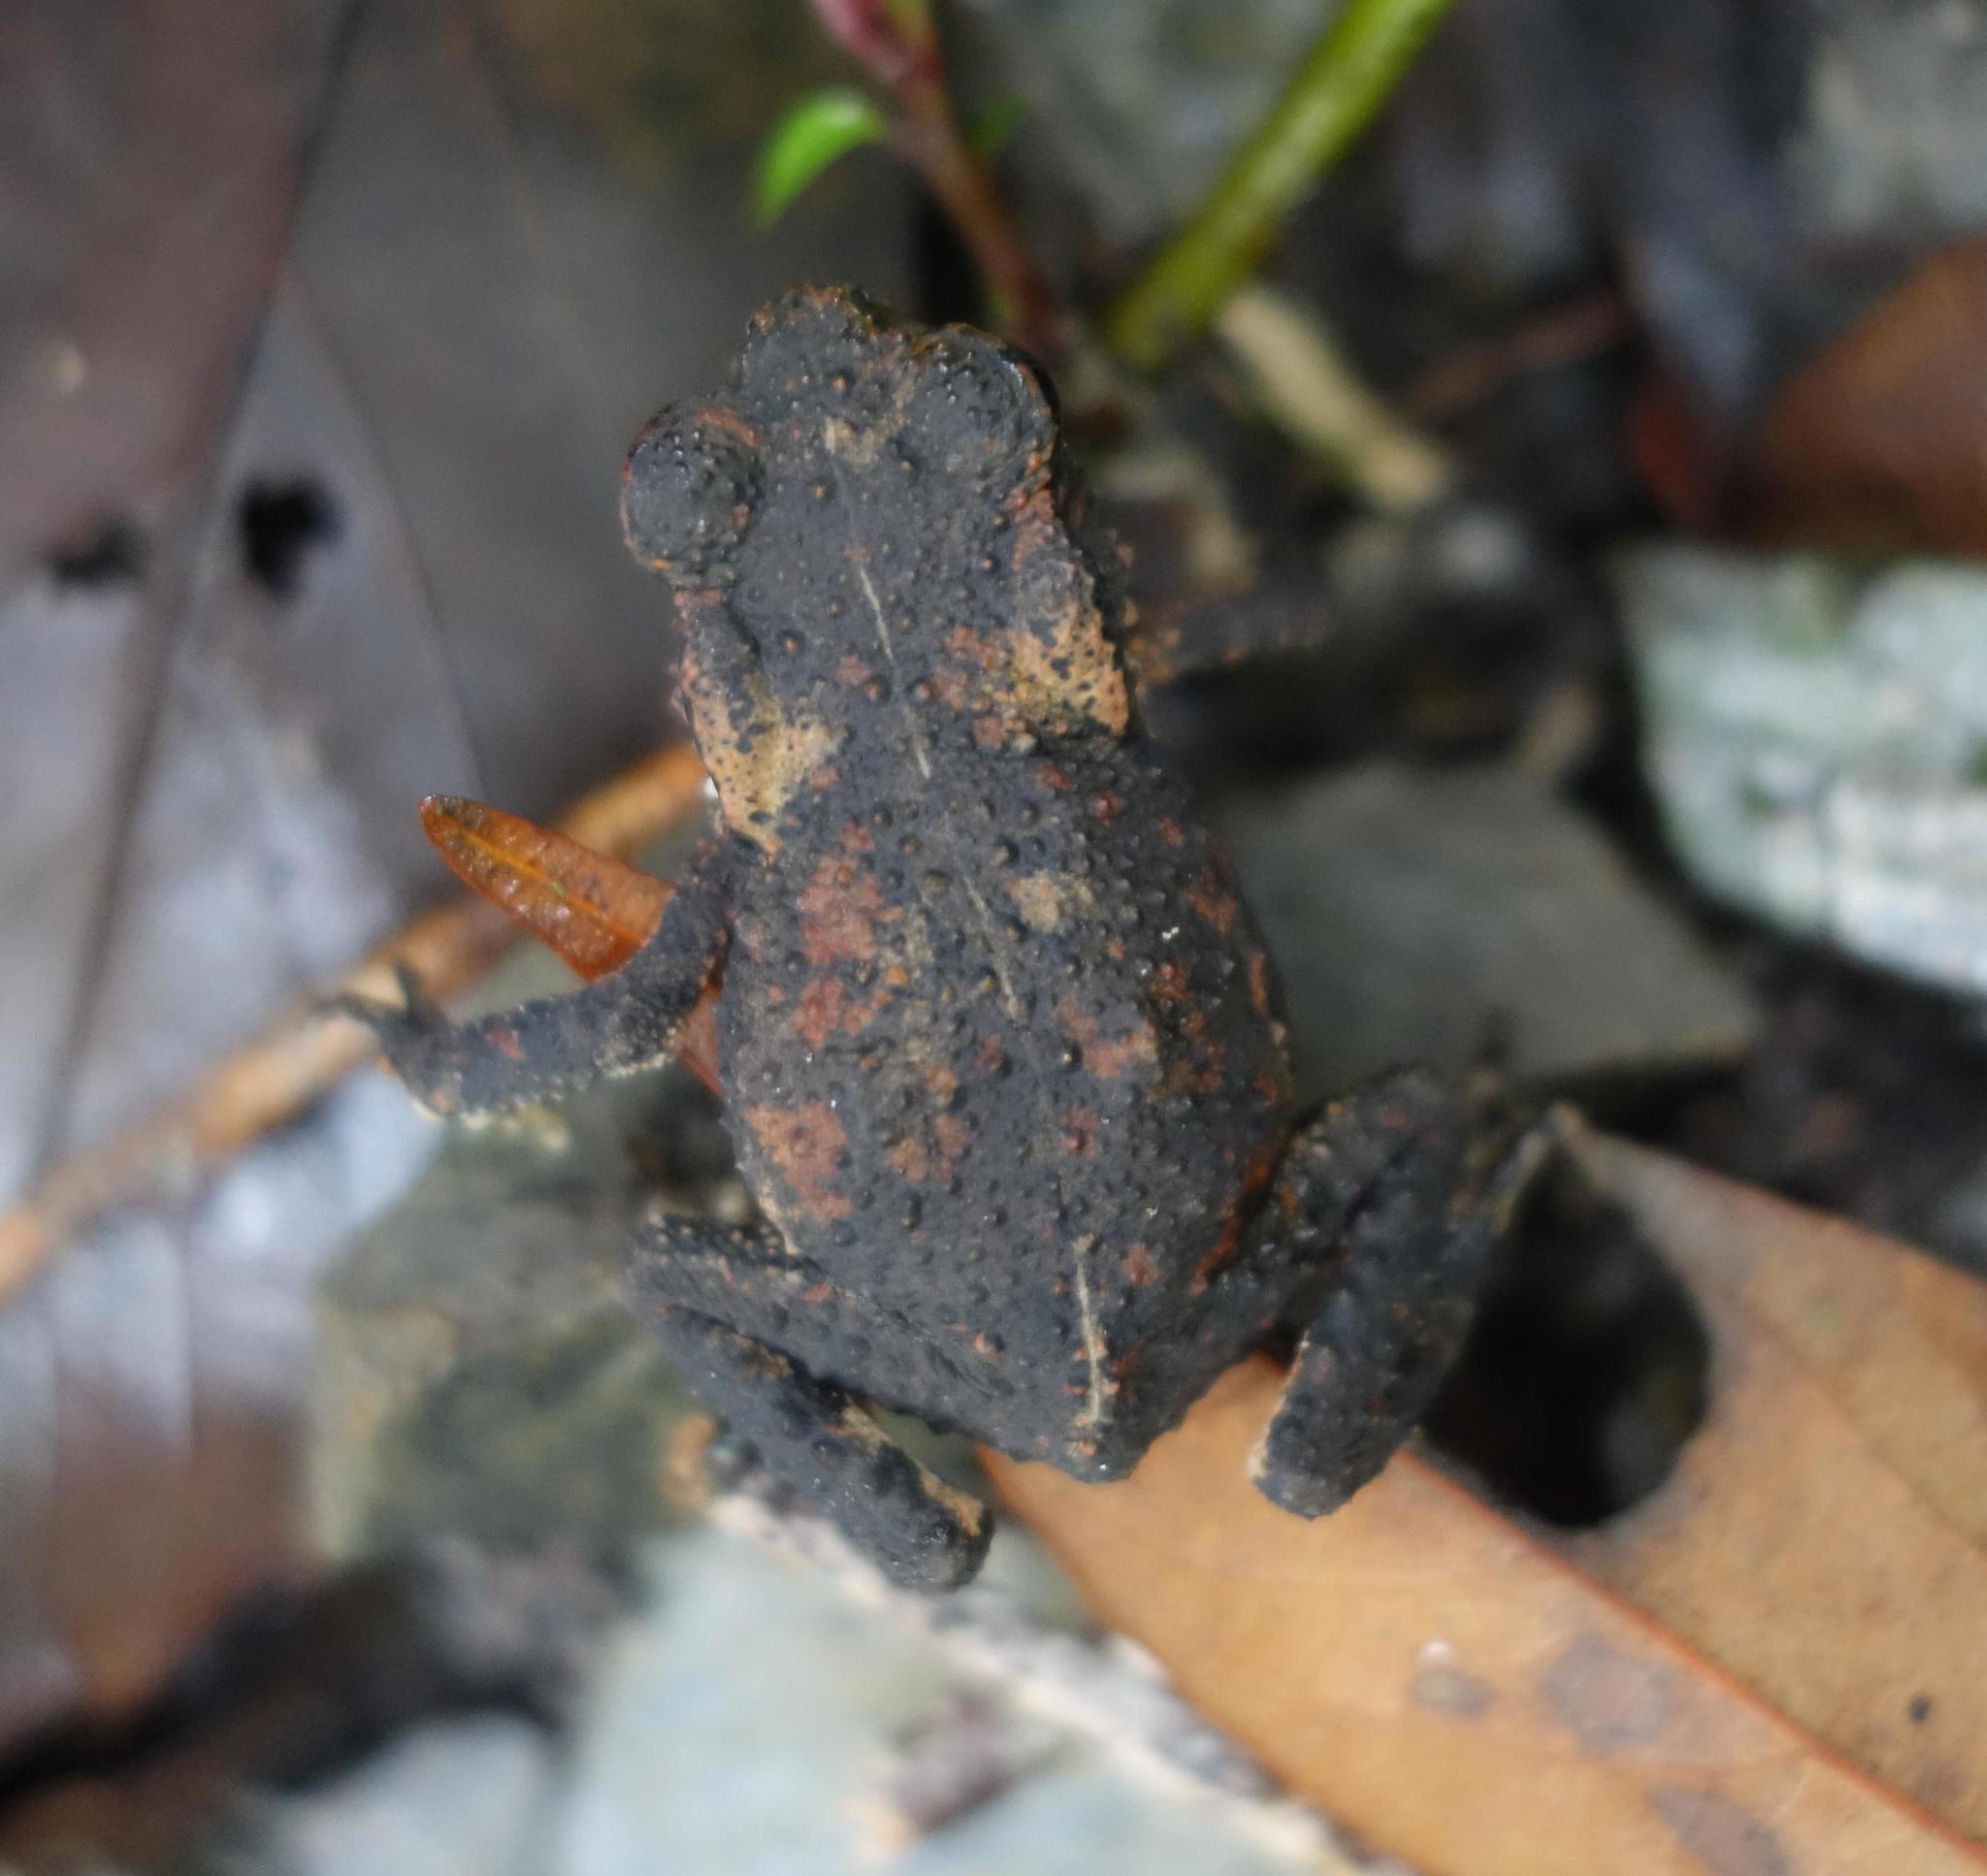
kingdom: Animalia
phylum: Chordata
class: Amphibia
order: Anura
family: Bufonidae
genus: Bufo
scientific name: Bufo bankorensis
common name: Bankor toad
